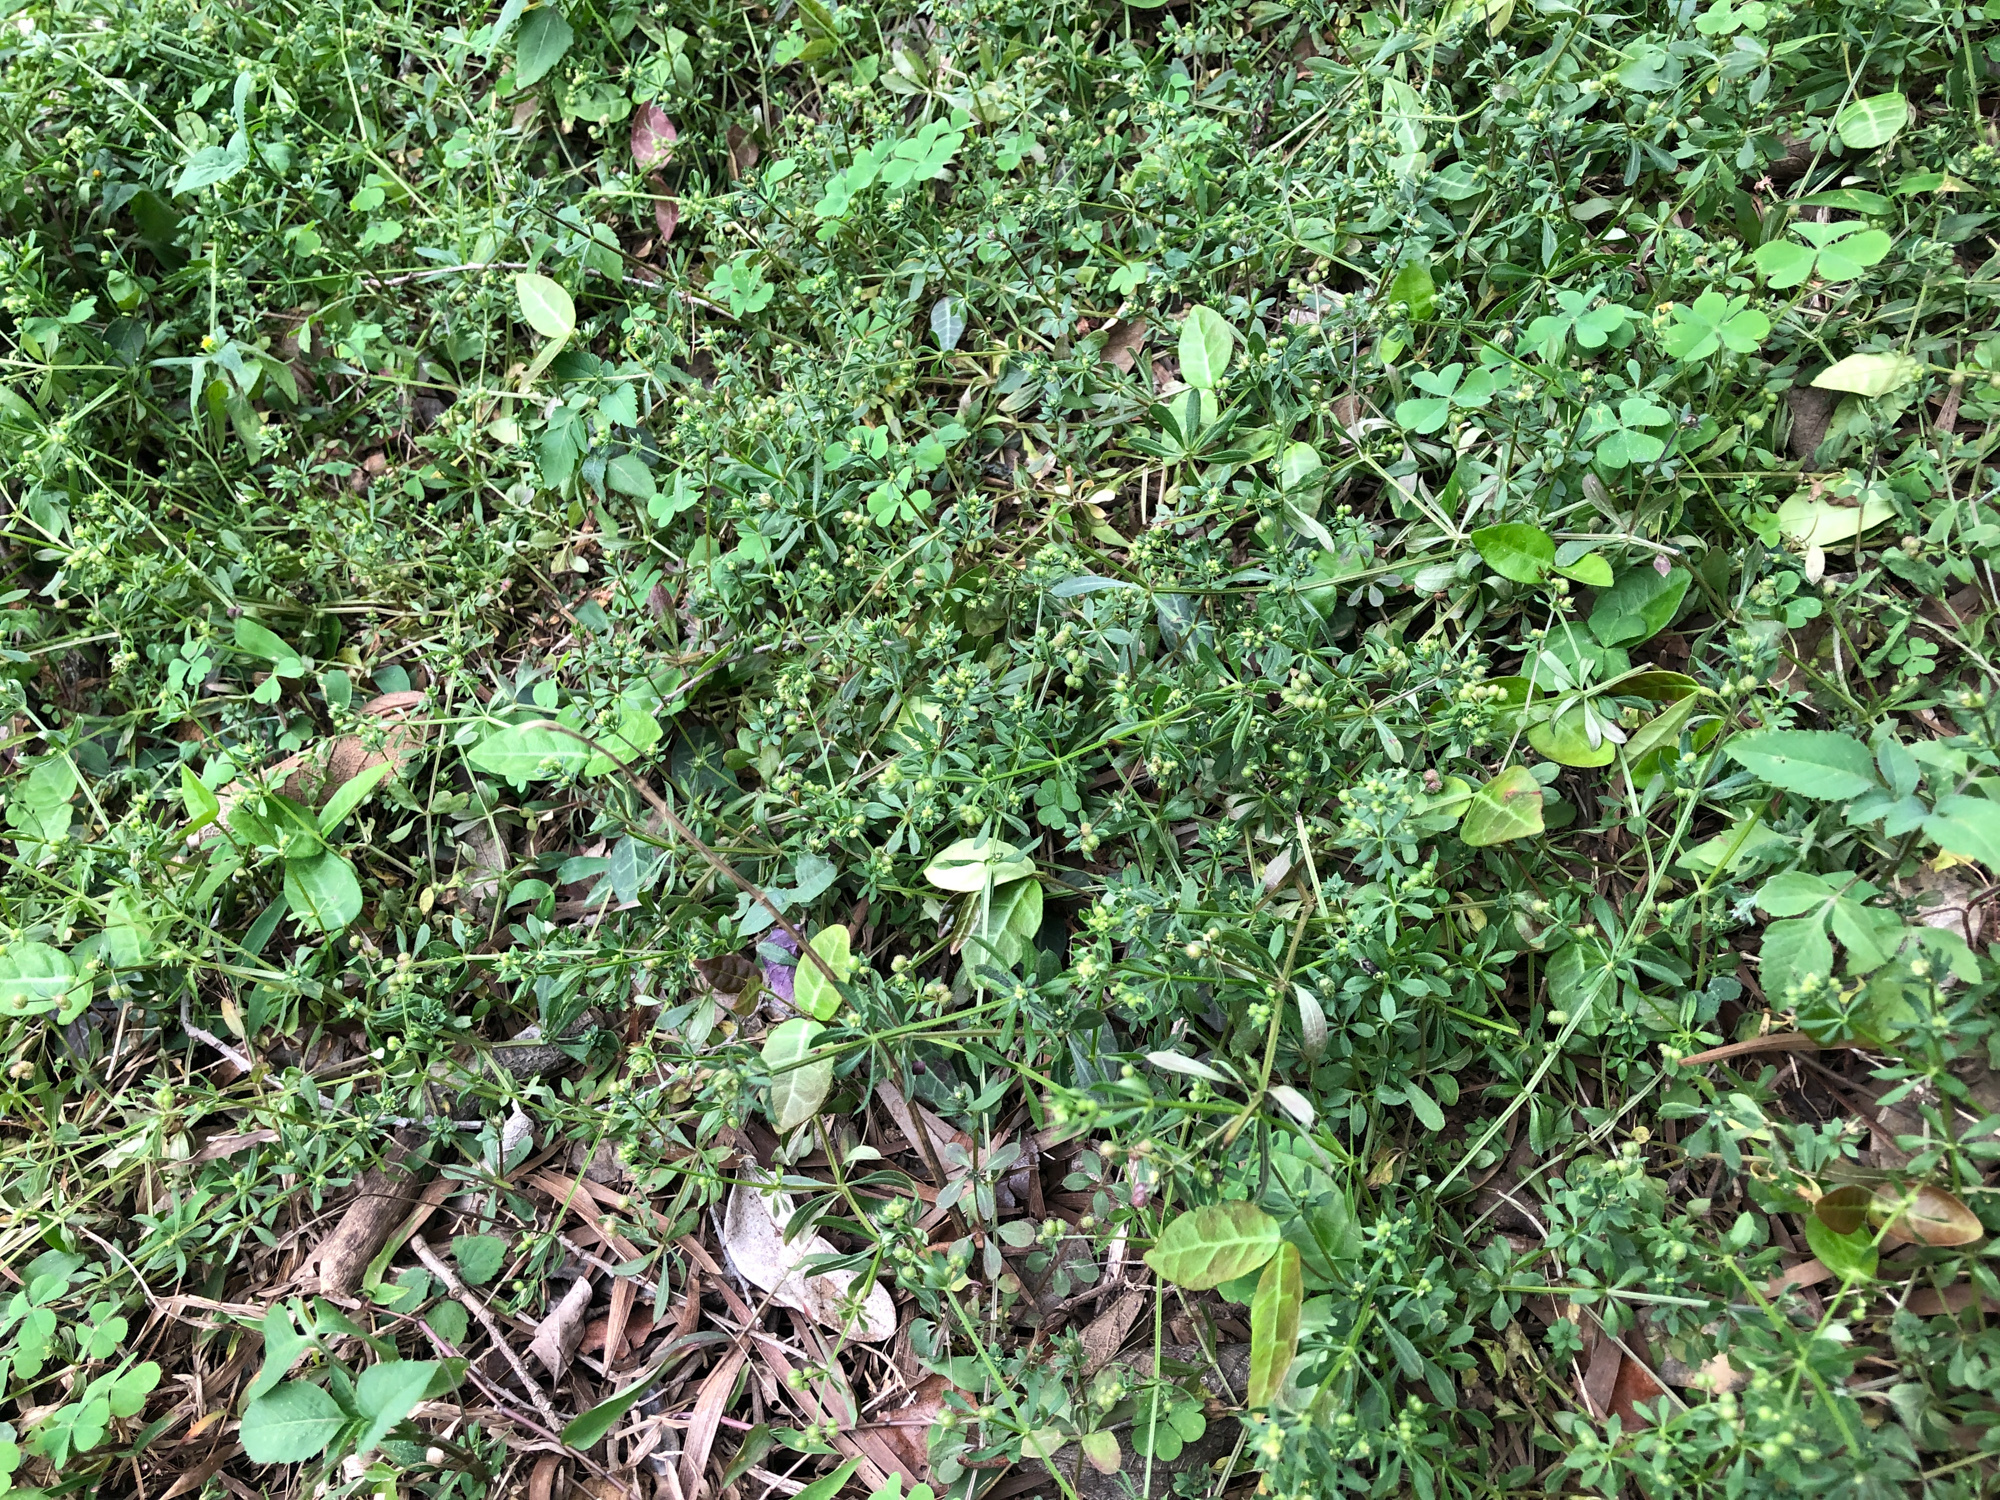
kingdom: Plantae
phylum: Tracheophyta
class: Magnoliopsida
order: Gentianales
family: Rubiaceae
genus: Galium
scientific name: Galium spurium
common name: False cleavers
